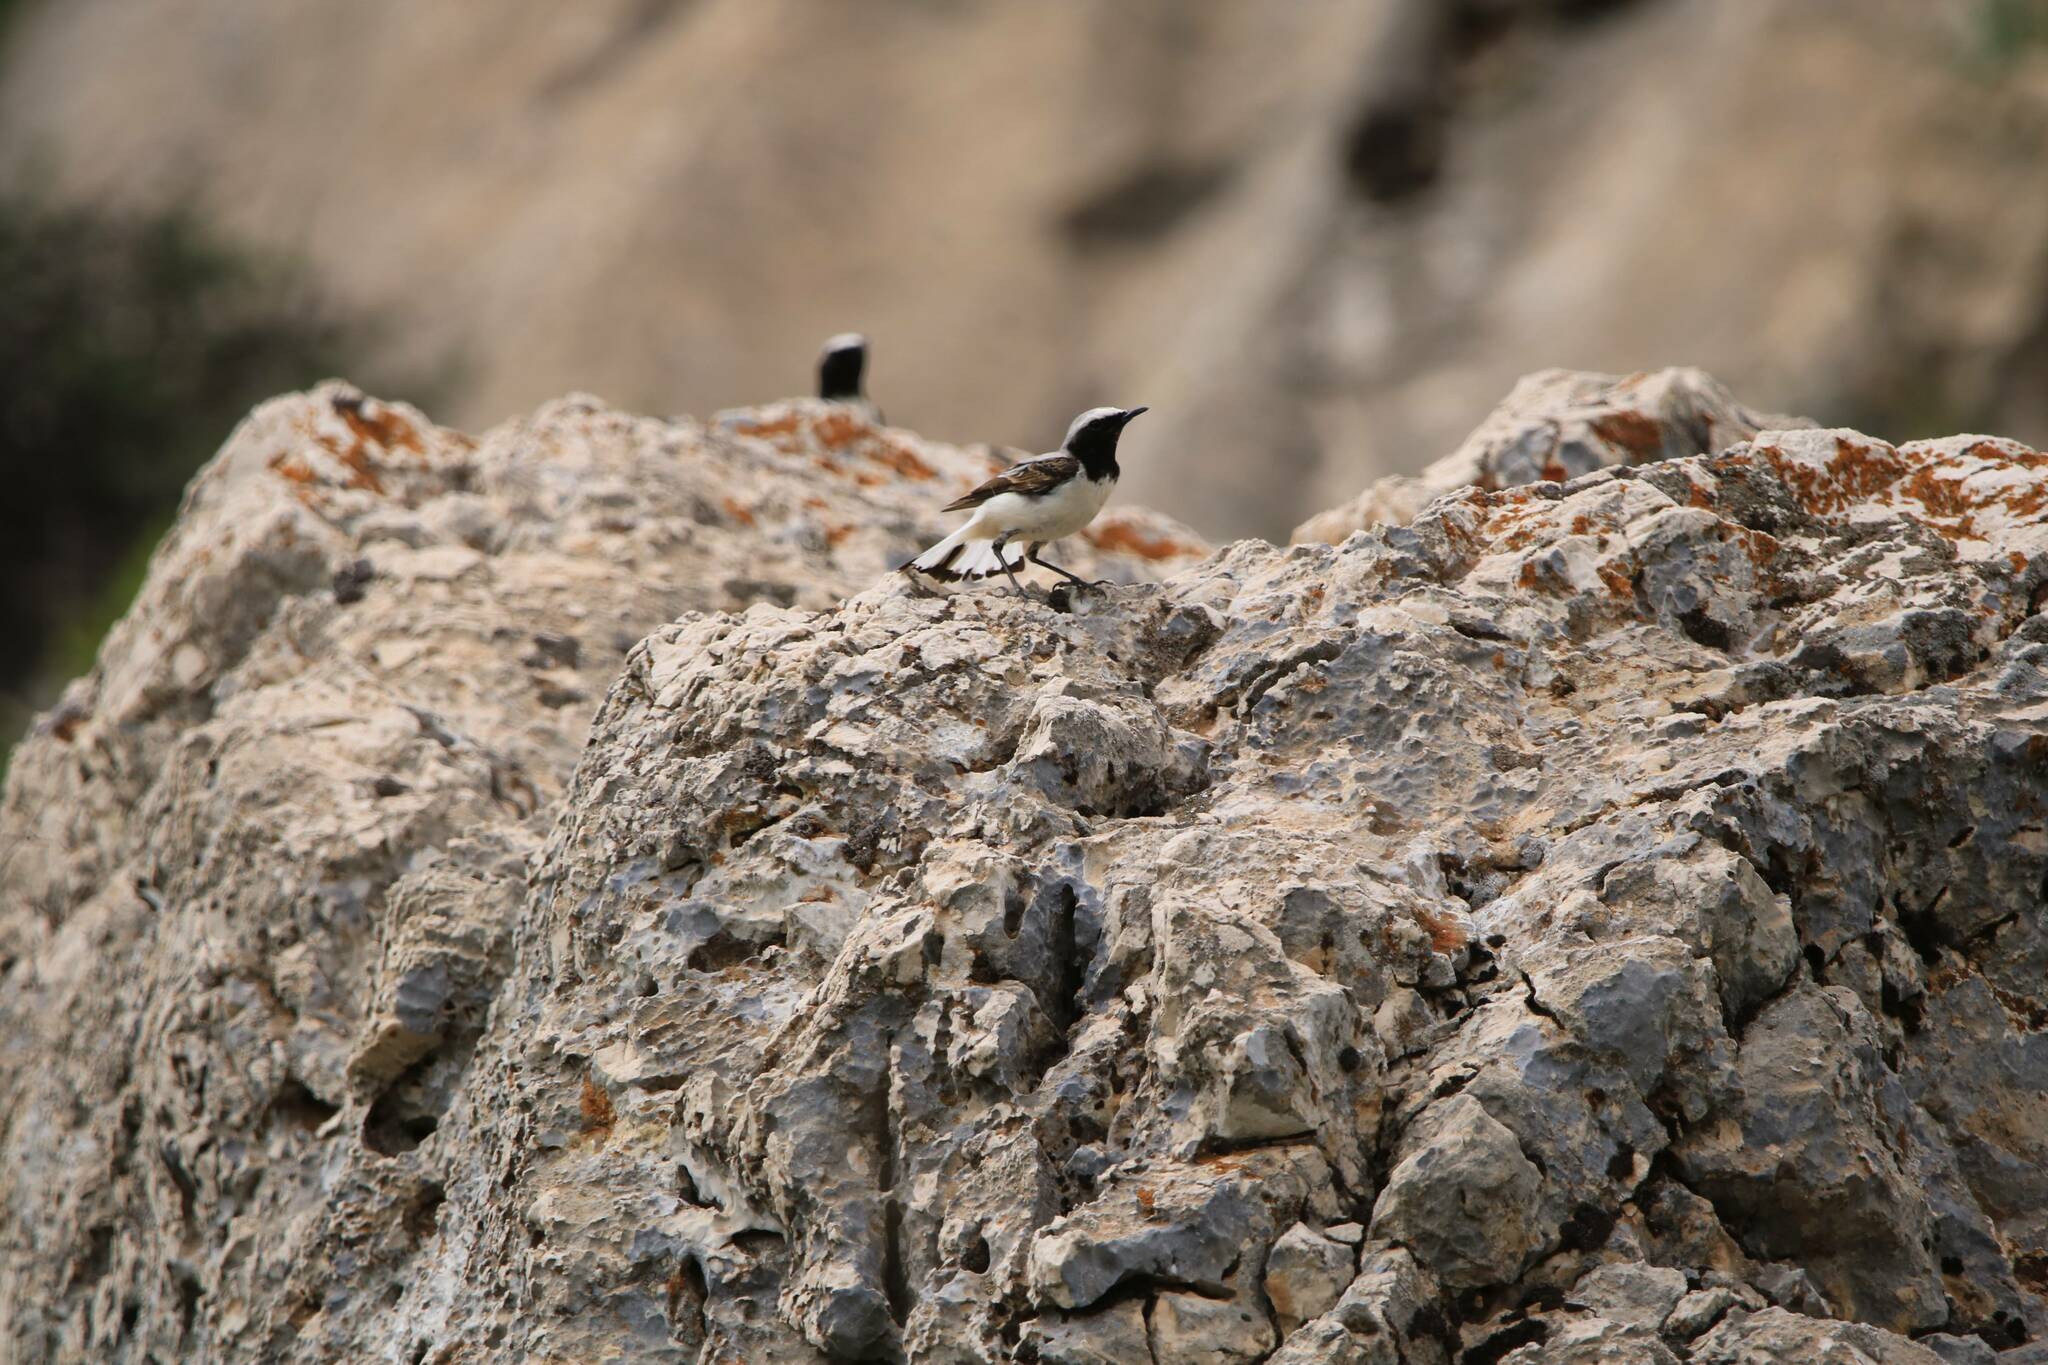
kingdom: Animalia
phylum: Chordata
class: Aves
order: Passeriformes
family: Muscicapidae
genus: Oenanthe
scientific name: Oenanthe oenanthe
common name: Northern wheatear
